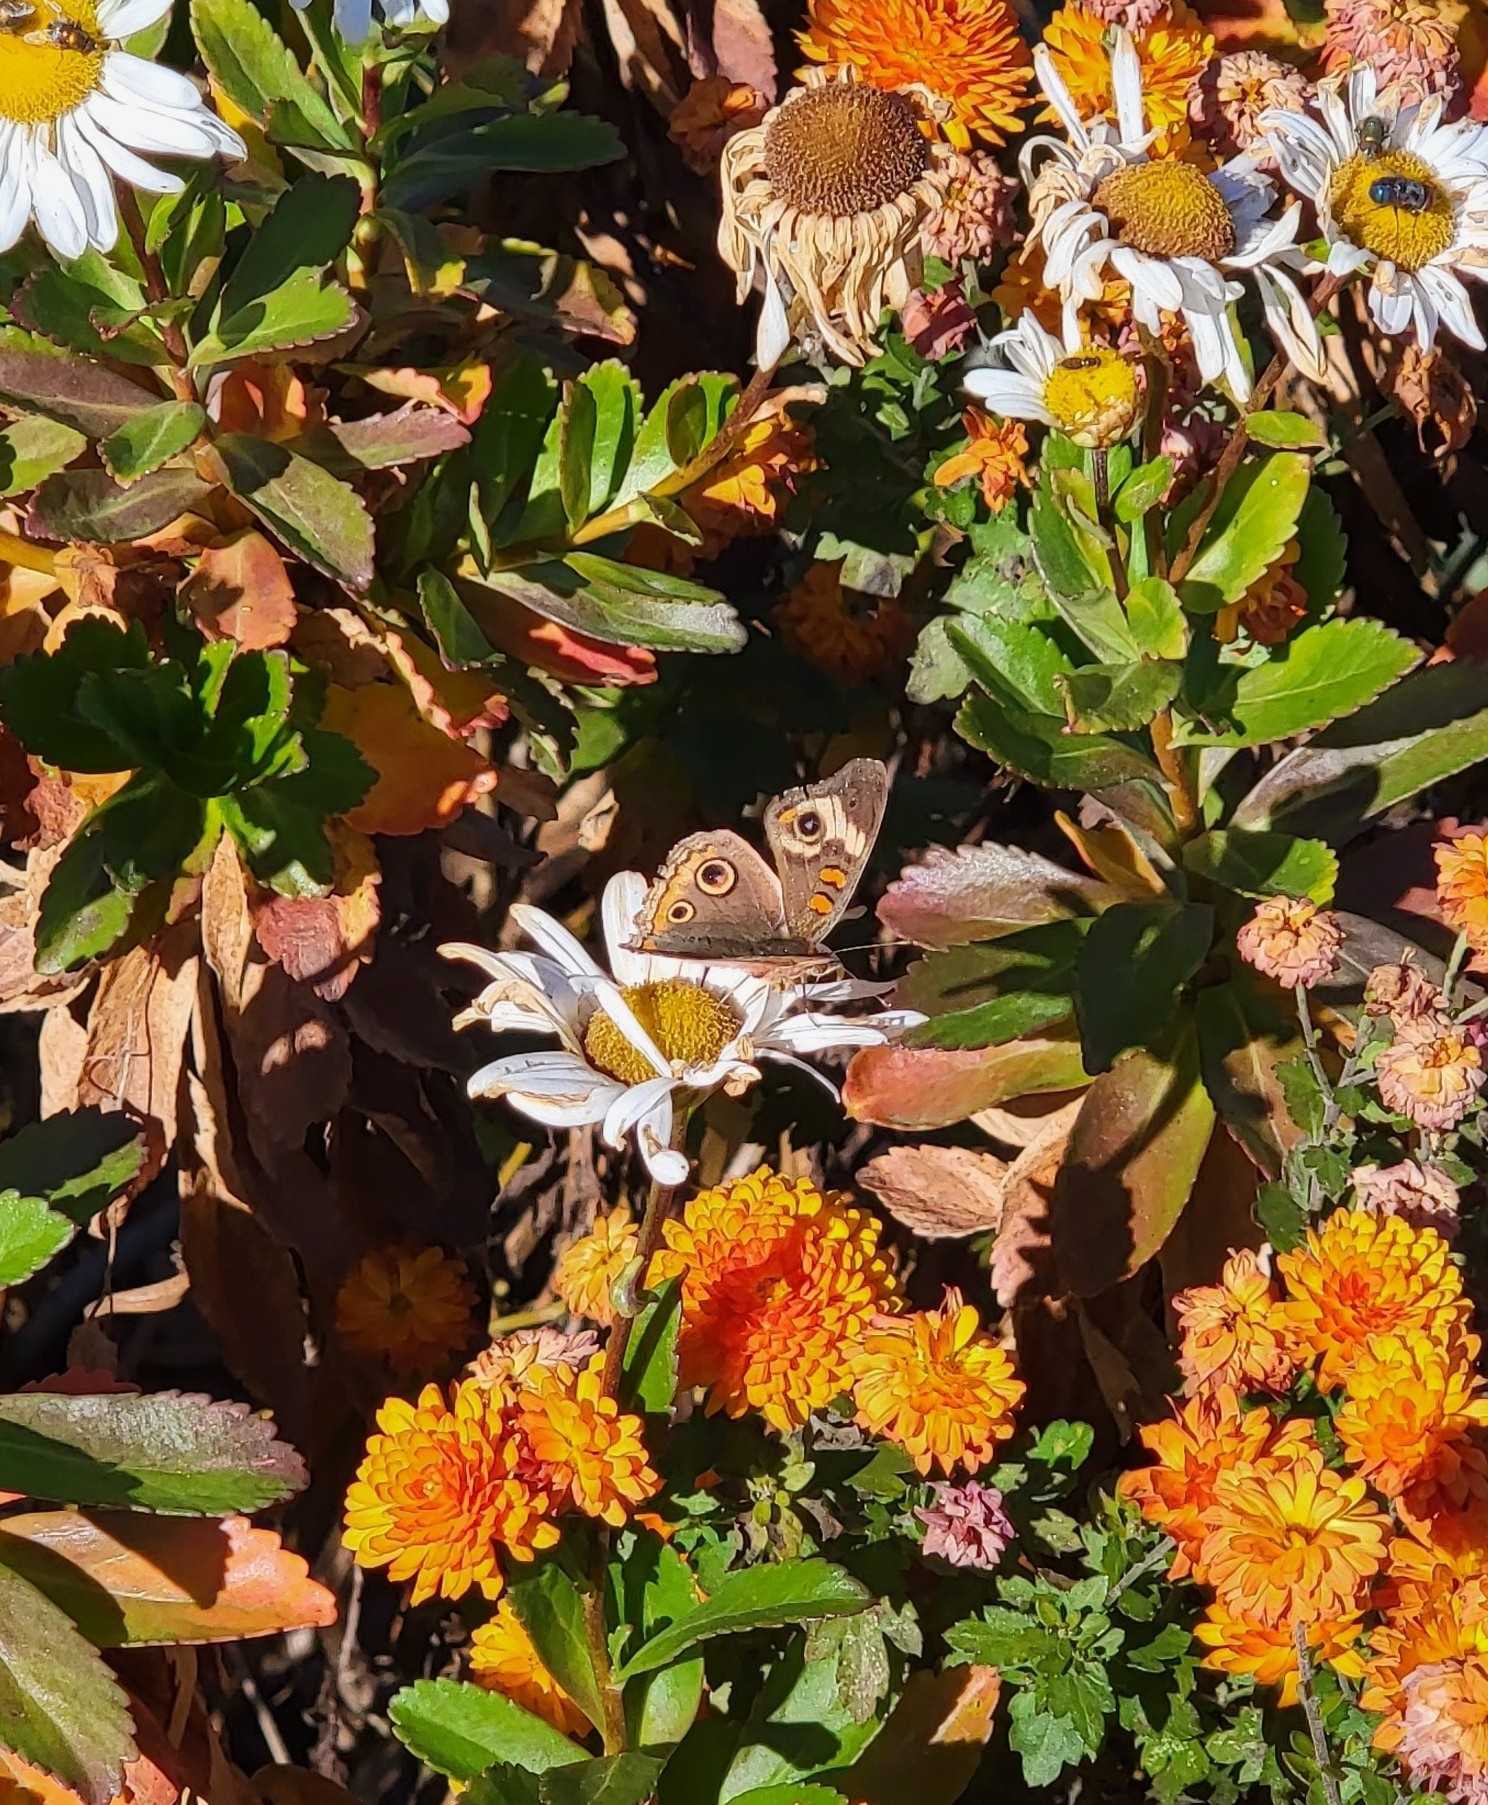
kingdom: Animalia
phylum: Arthropoda
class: Insecta
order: Lepidoptera
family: Nymphalidae
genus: Junonia
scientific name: Junonia coenia
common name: Common buckeye
